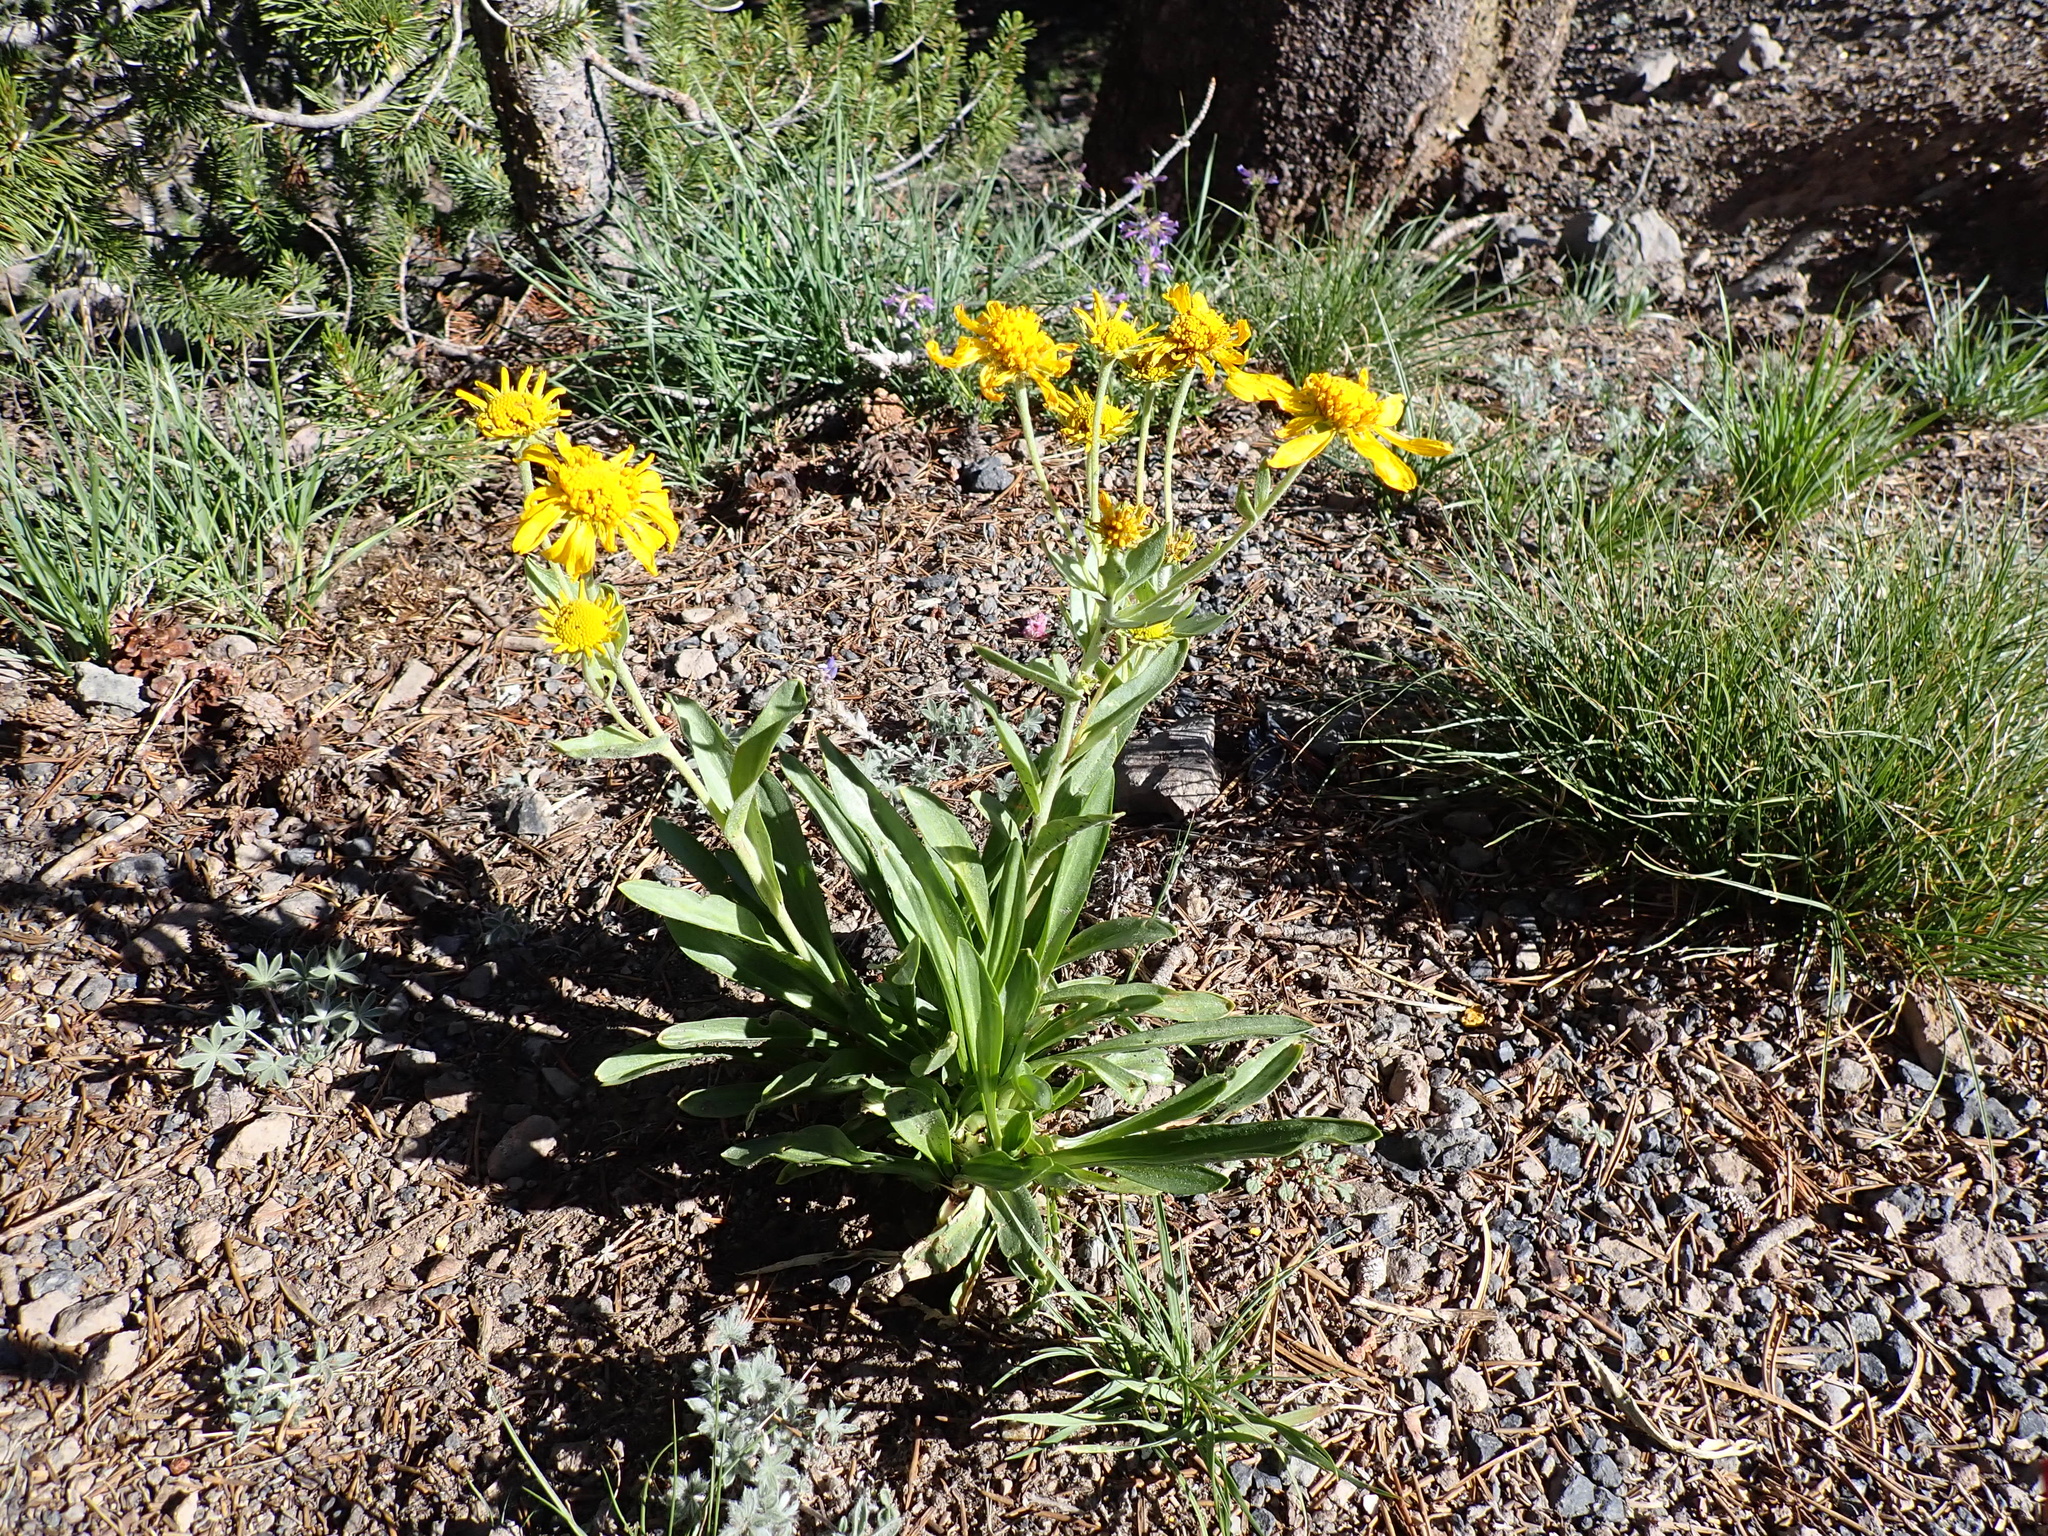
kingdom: Plantae
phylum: Tracheophyta
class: Magnoliopsida
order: Asterales
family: Asteraceae
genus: Hymenoxys
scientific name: Hymenoxys hoopesii
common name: Orange-sneezeweed
